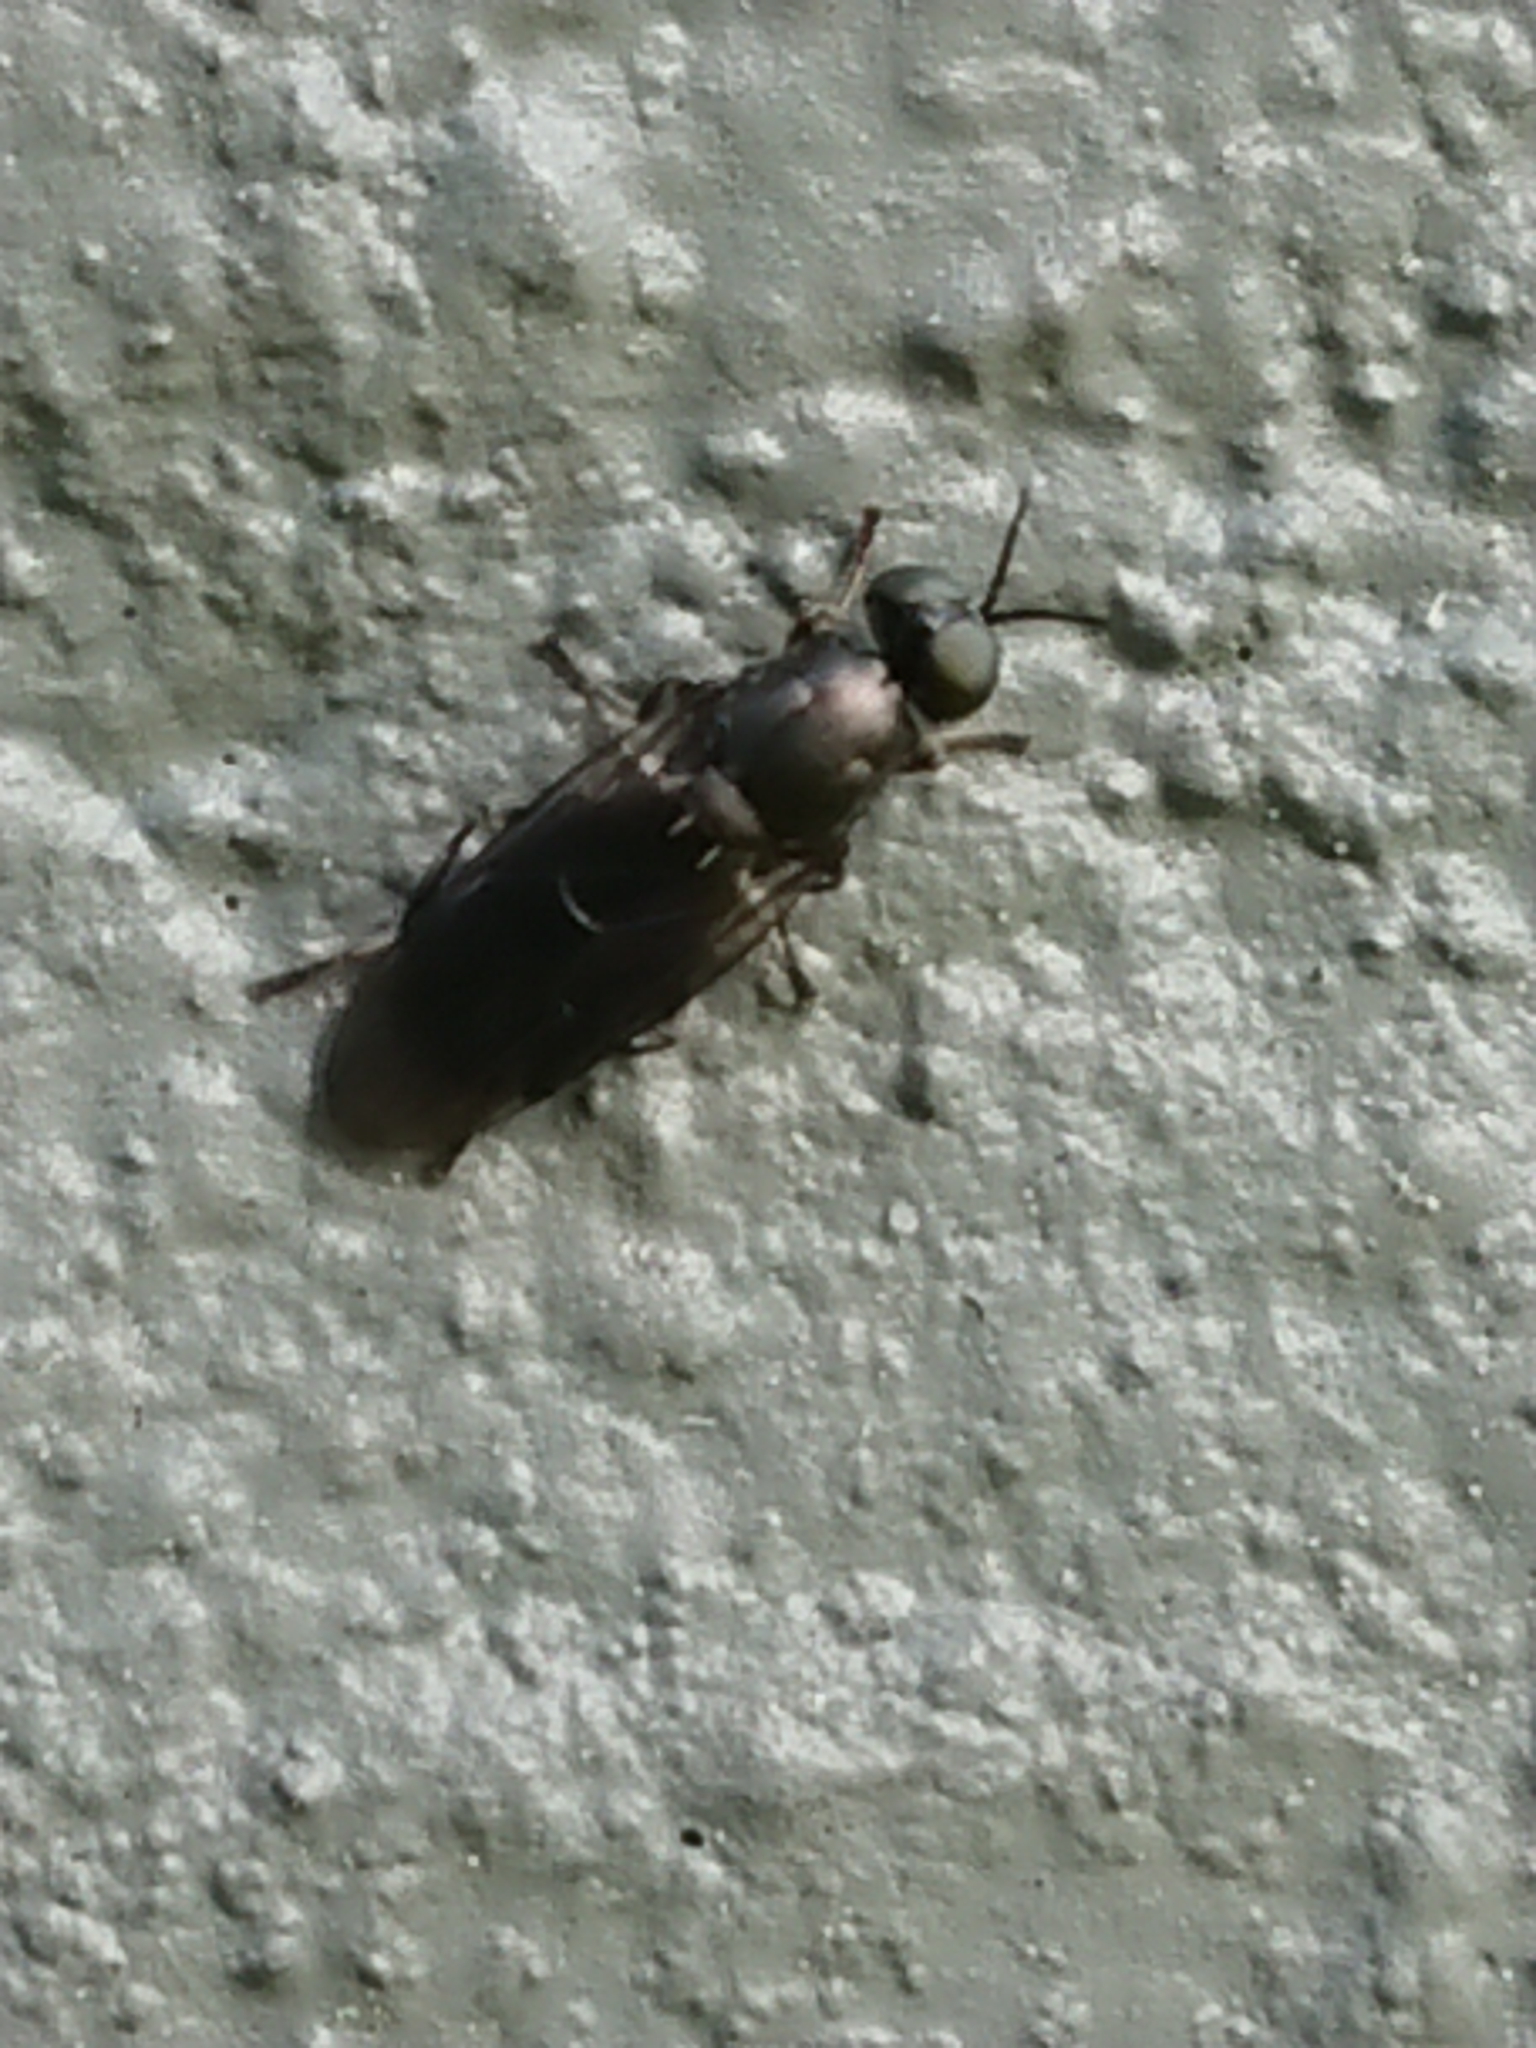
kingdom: Animalia
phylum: Arthropoda
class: Insecta
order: Diptera
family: Stratiomyidae
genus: Zealandoberis
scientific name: Zealandoberis violacea
